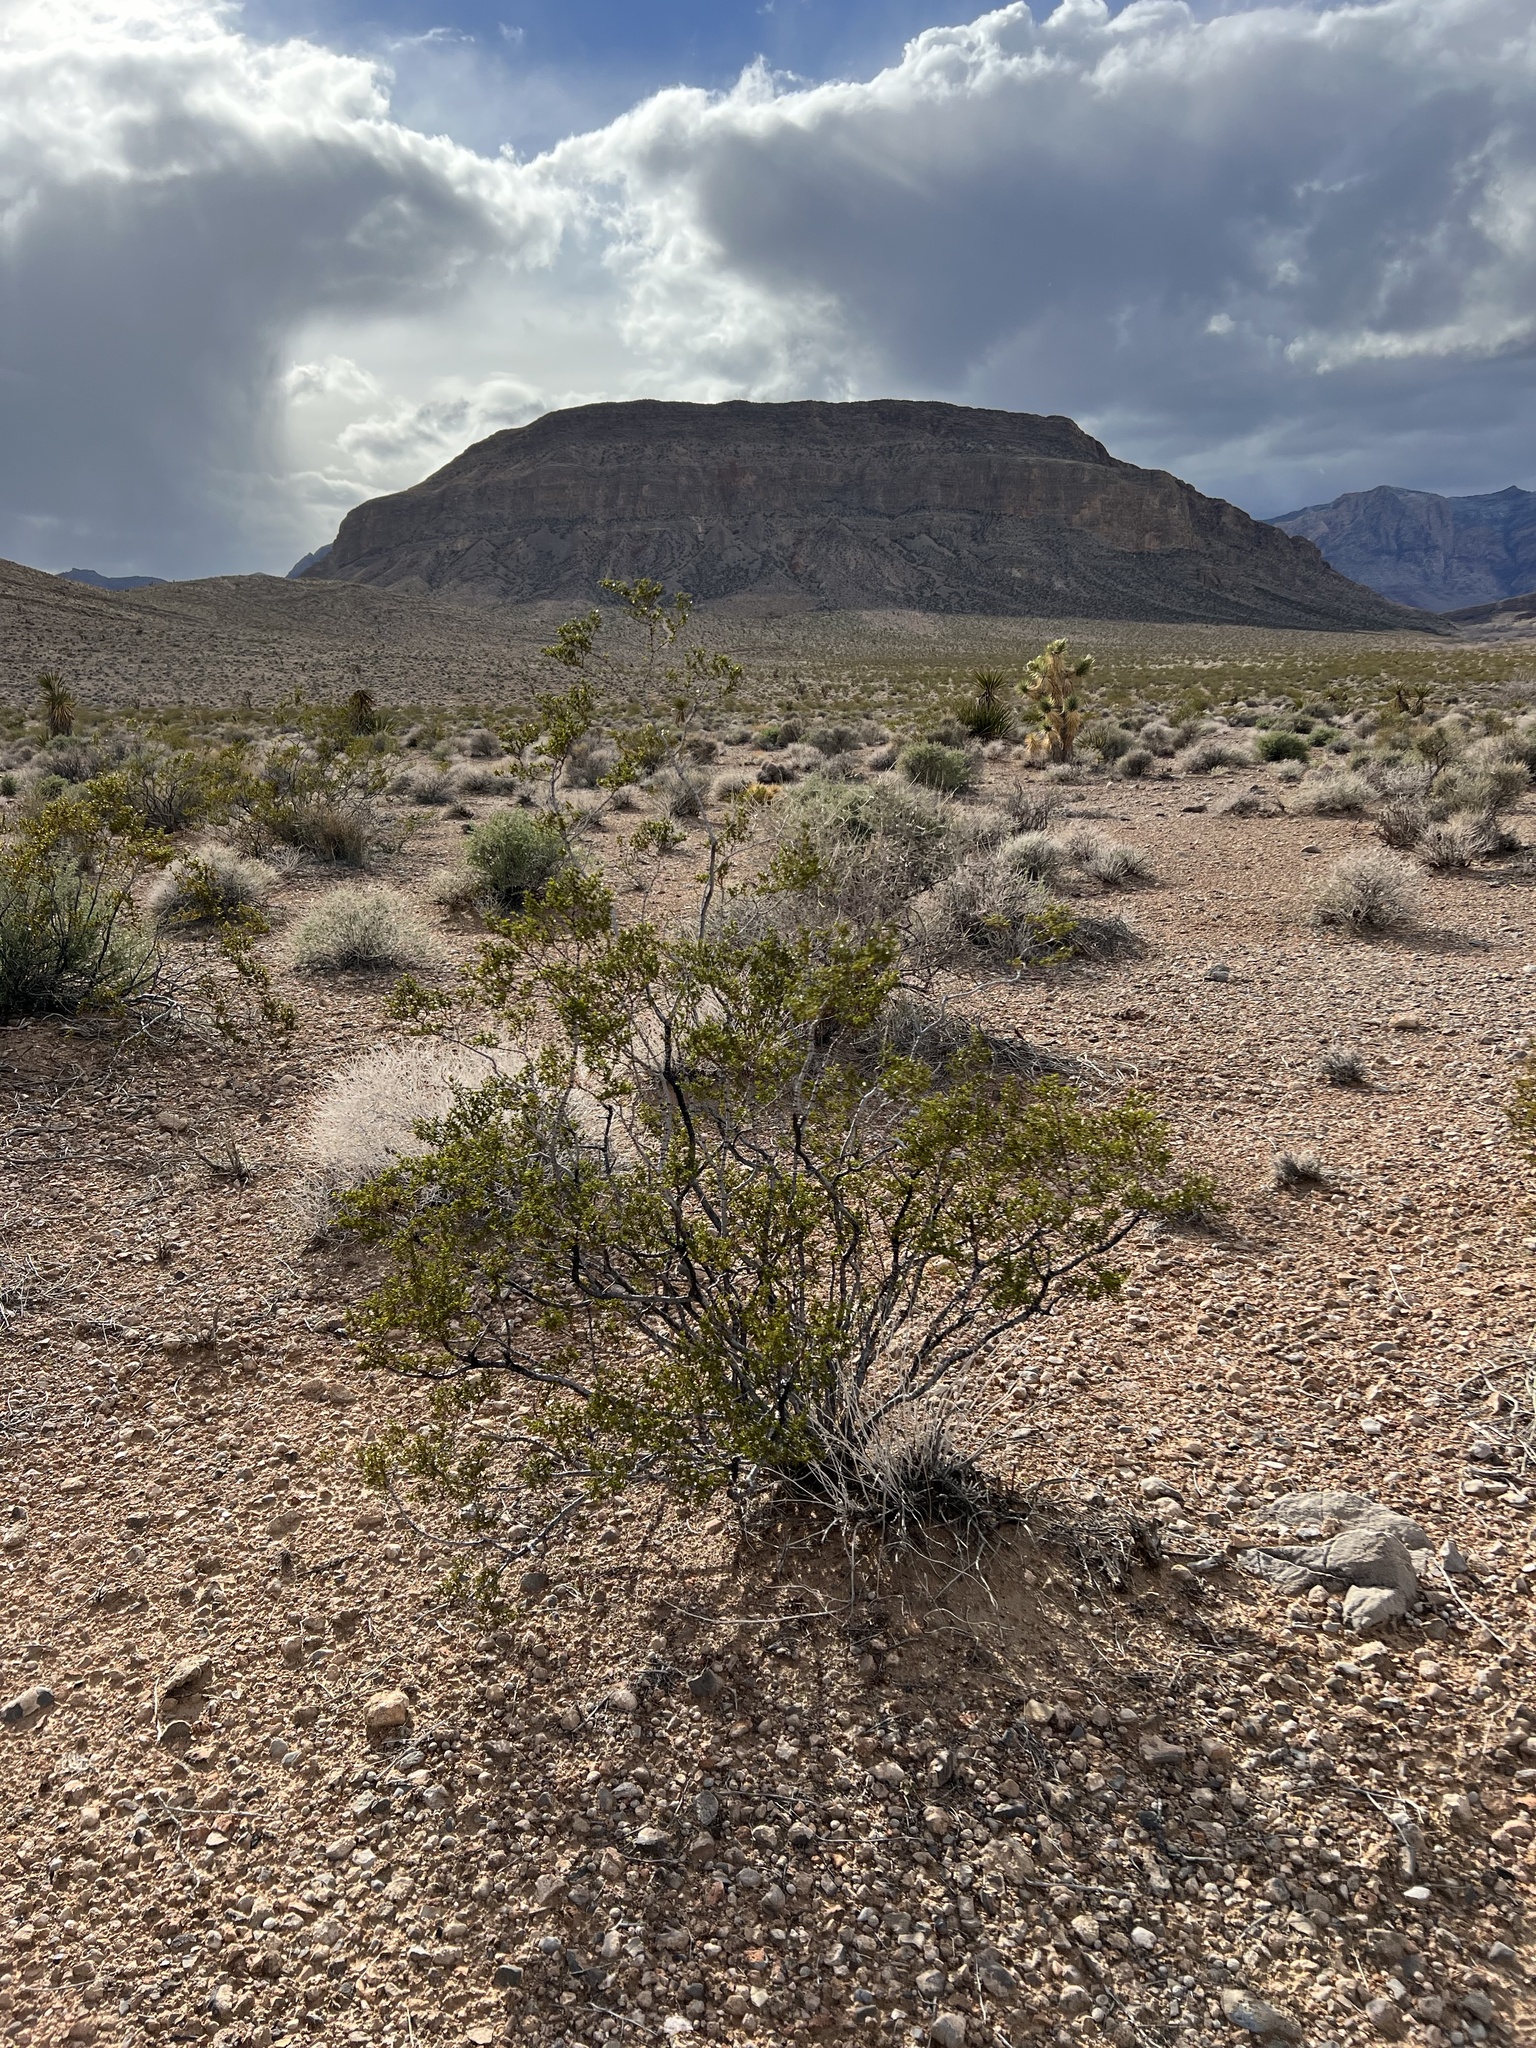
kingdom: Plantae
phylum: Tracheophyta
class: Magnoliopsida
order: Zygophyllales
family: Zygophyllaceae
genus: Larrea
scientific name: Larrea tridentata
